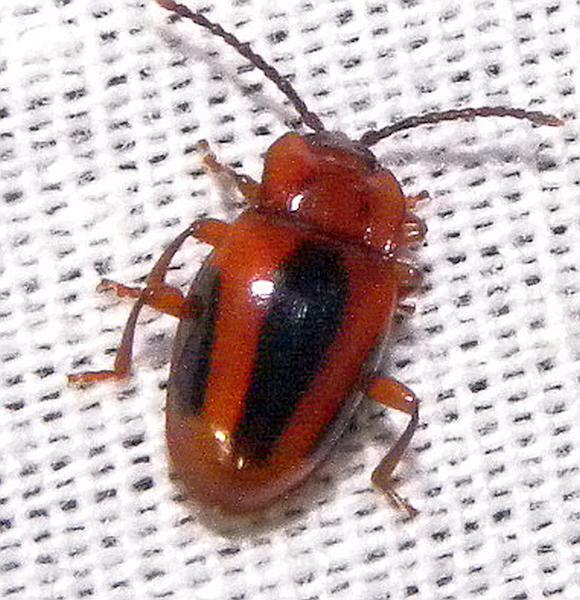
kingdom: Animalia
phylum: Arthropoda
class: Insecta
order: Coleoptera
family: Endomychidae
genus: Aphorista
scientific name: Aphorista vittata
